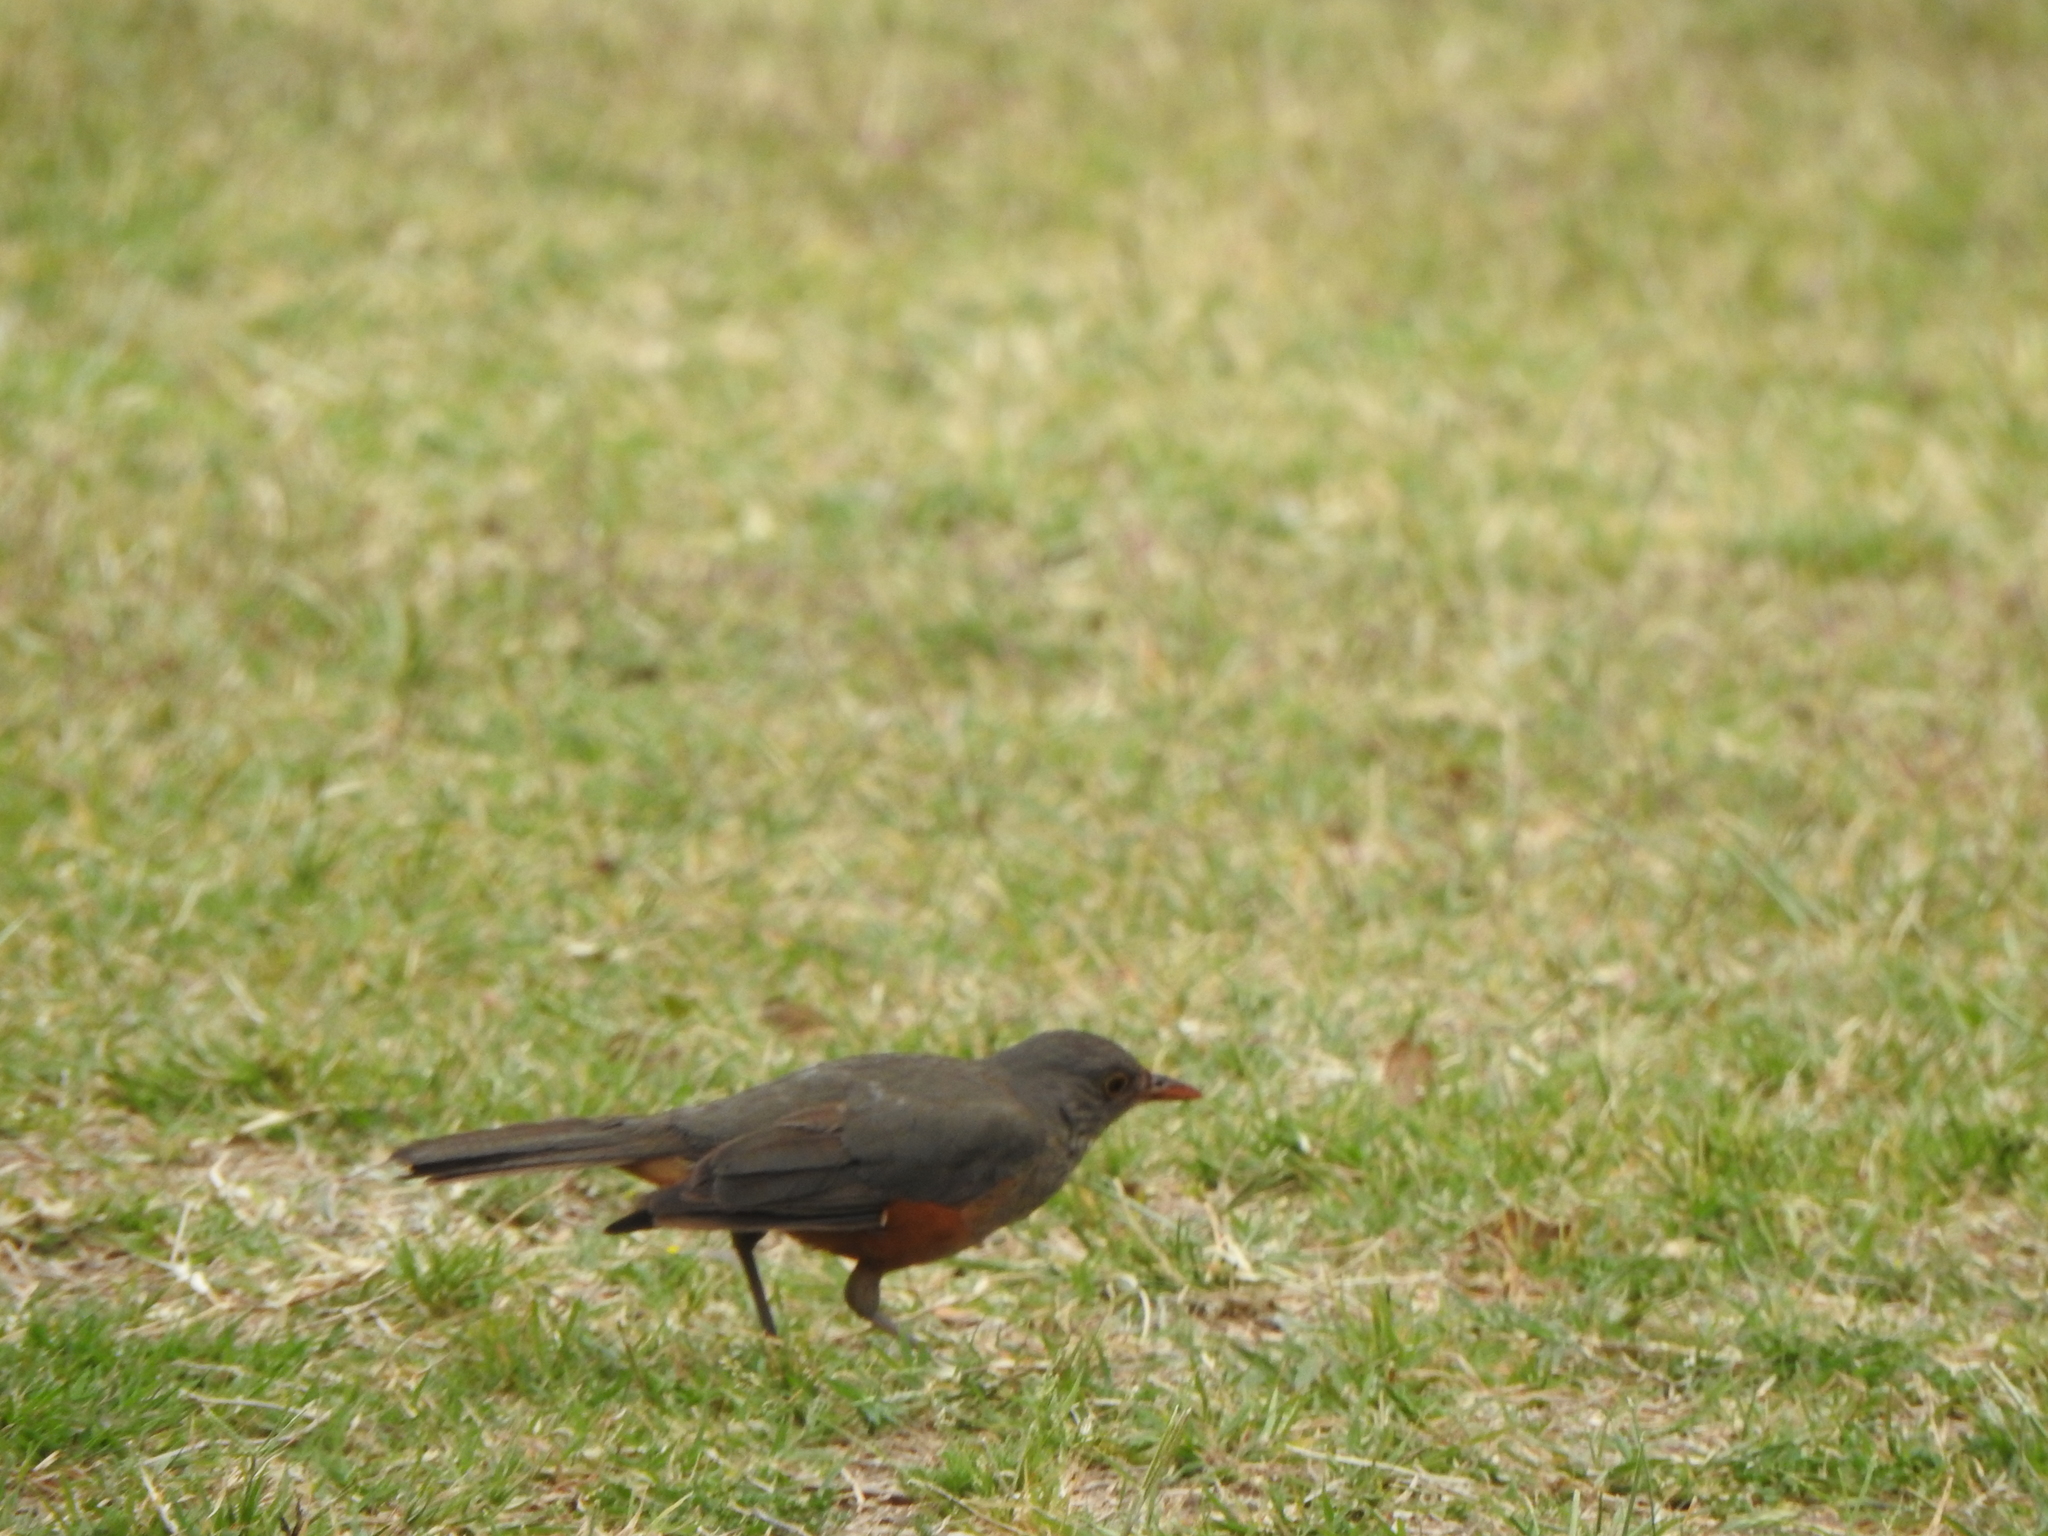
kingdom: Animalia
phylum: Chordata
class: Aves
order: Passeriformes
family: Turdidae
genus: Turdus
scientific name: Turdus rufiventris
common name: Rufous-bellied thrush
